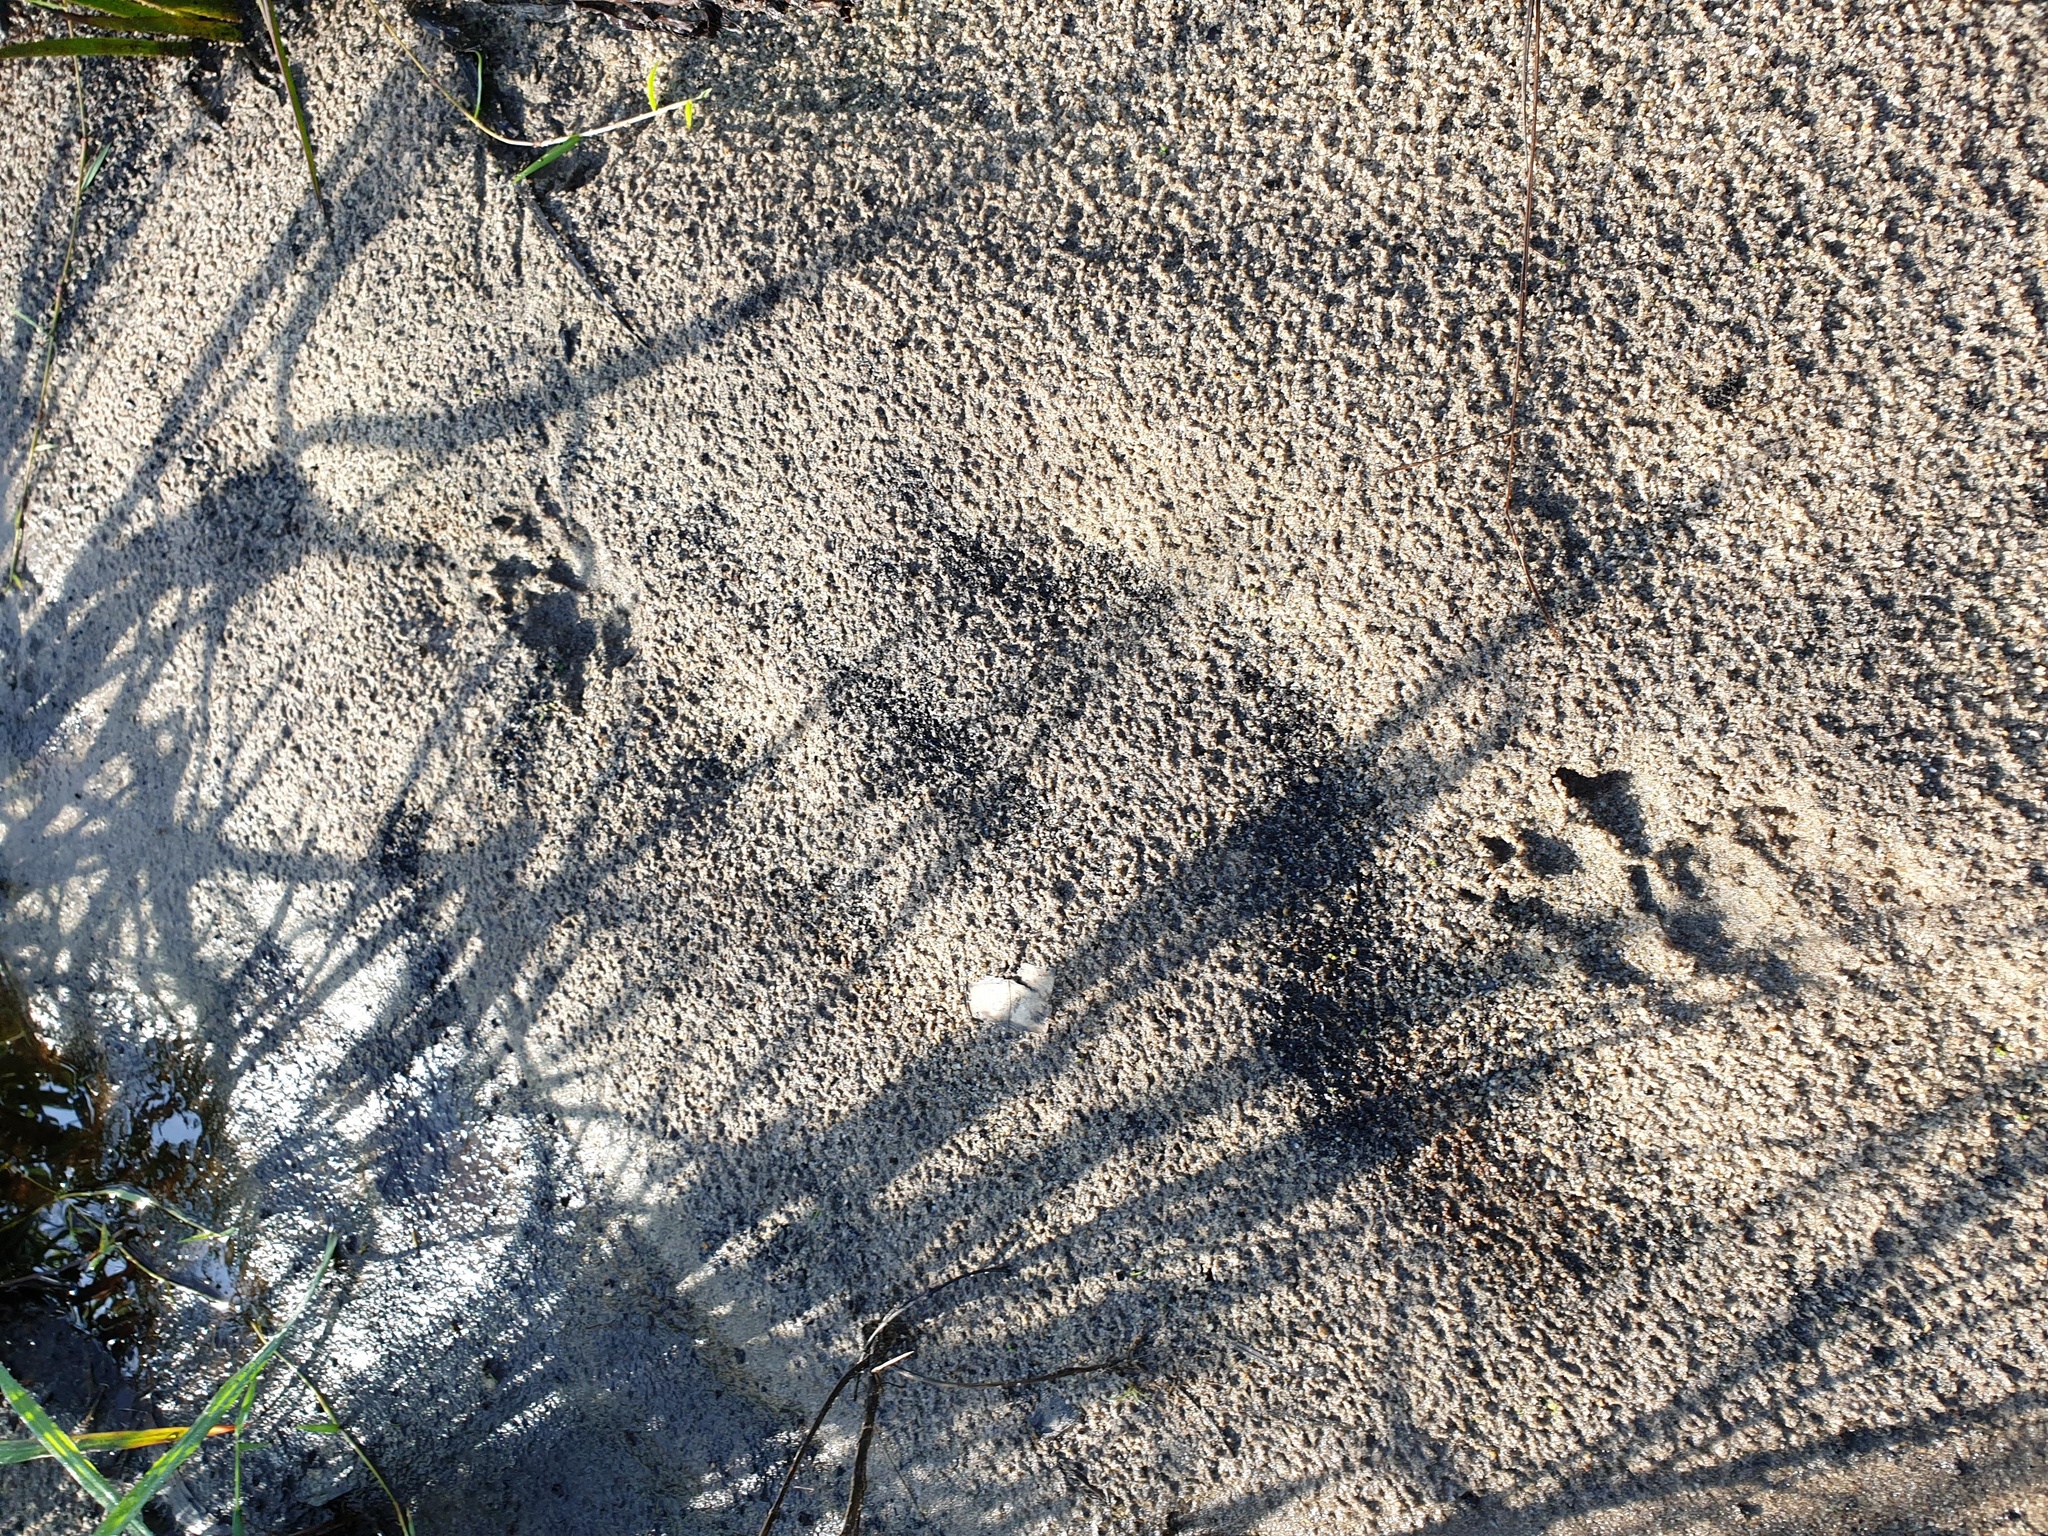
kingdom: Animalia
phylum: Chordata
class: Mammalia
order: Carnivora
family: Canidae
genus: Canis
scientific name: Canis lupus
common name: Gray wolf
